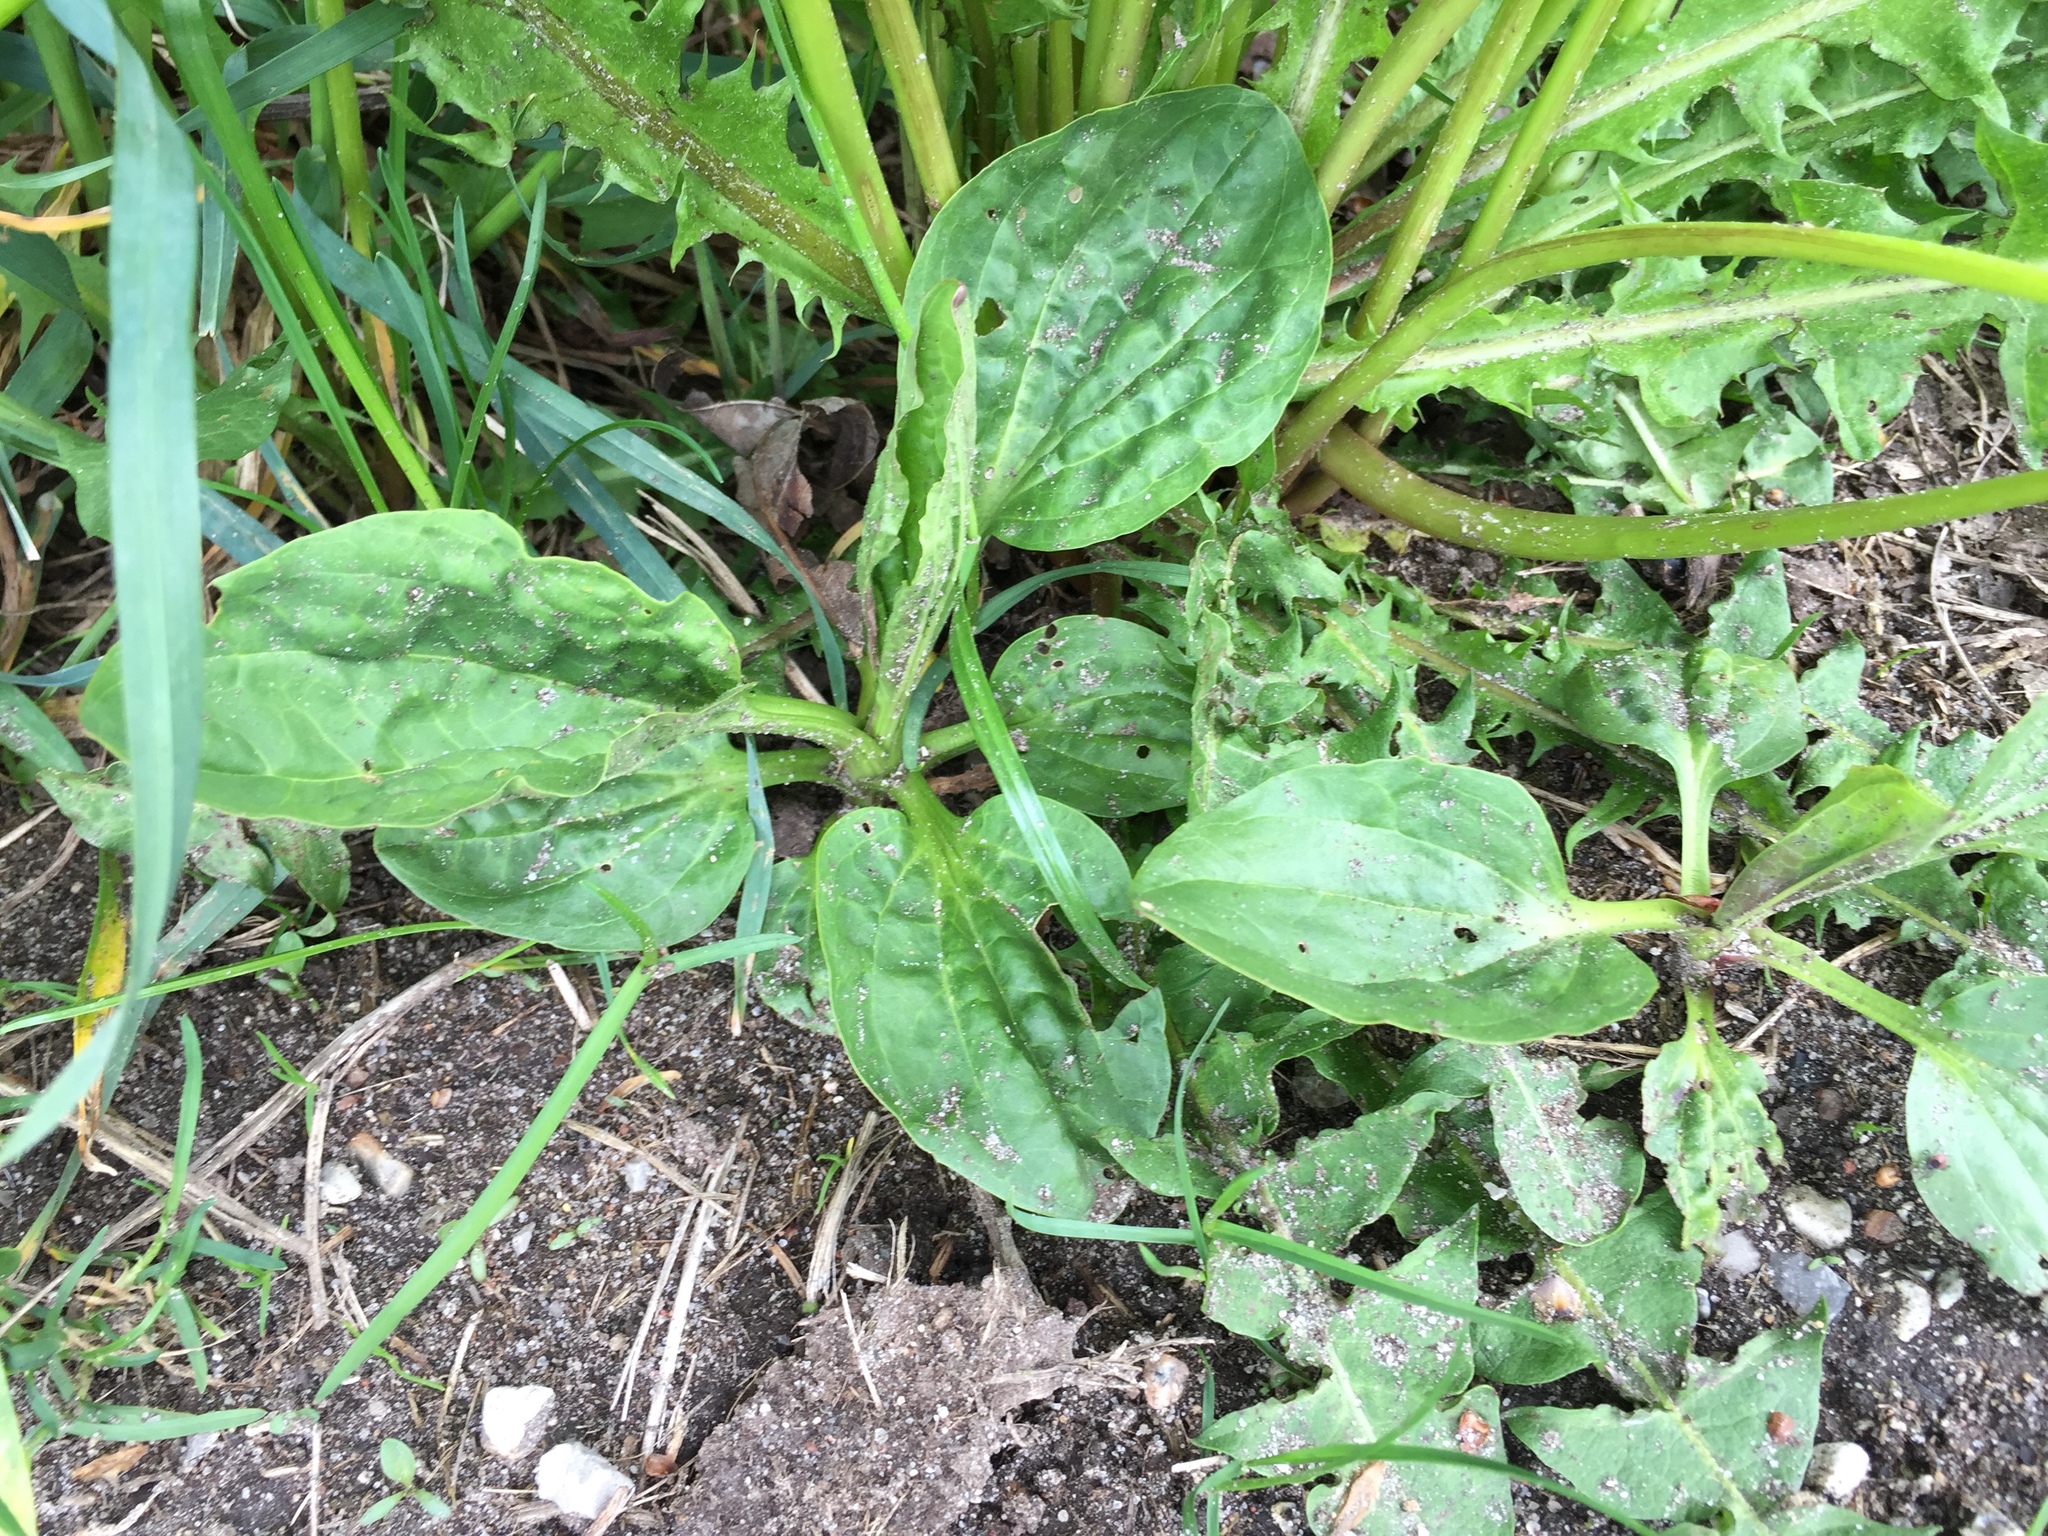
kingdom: Plantae
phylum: Tracheophyta
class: Magnoliopsida
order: Lamiales
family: Plantaginaceae
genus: Plantago
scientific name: Plantago major
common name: Common plantain
